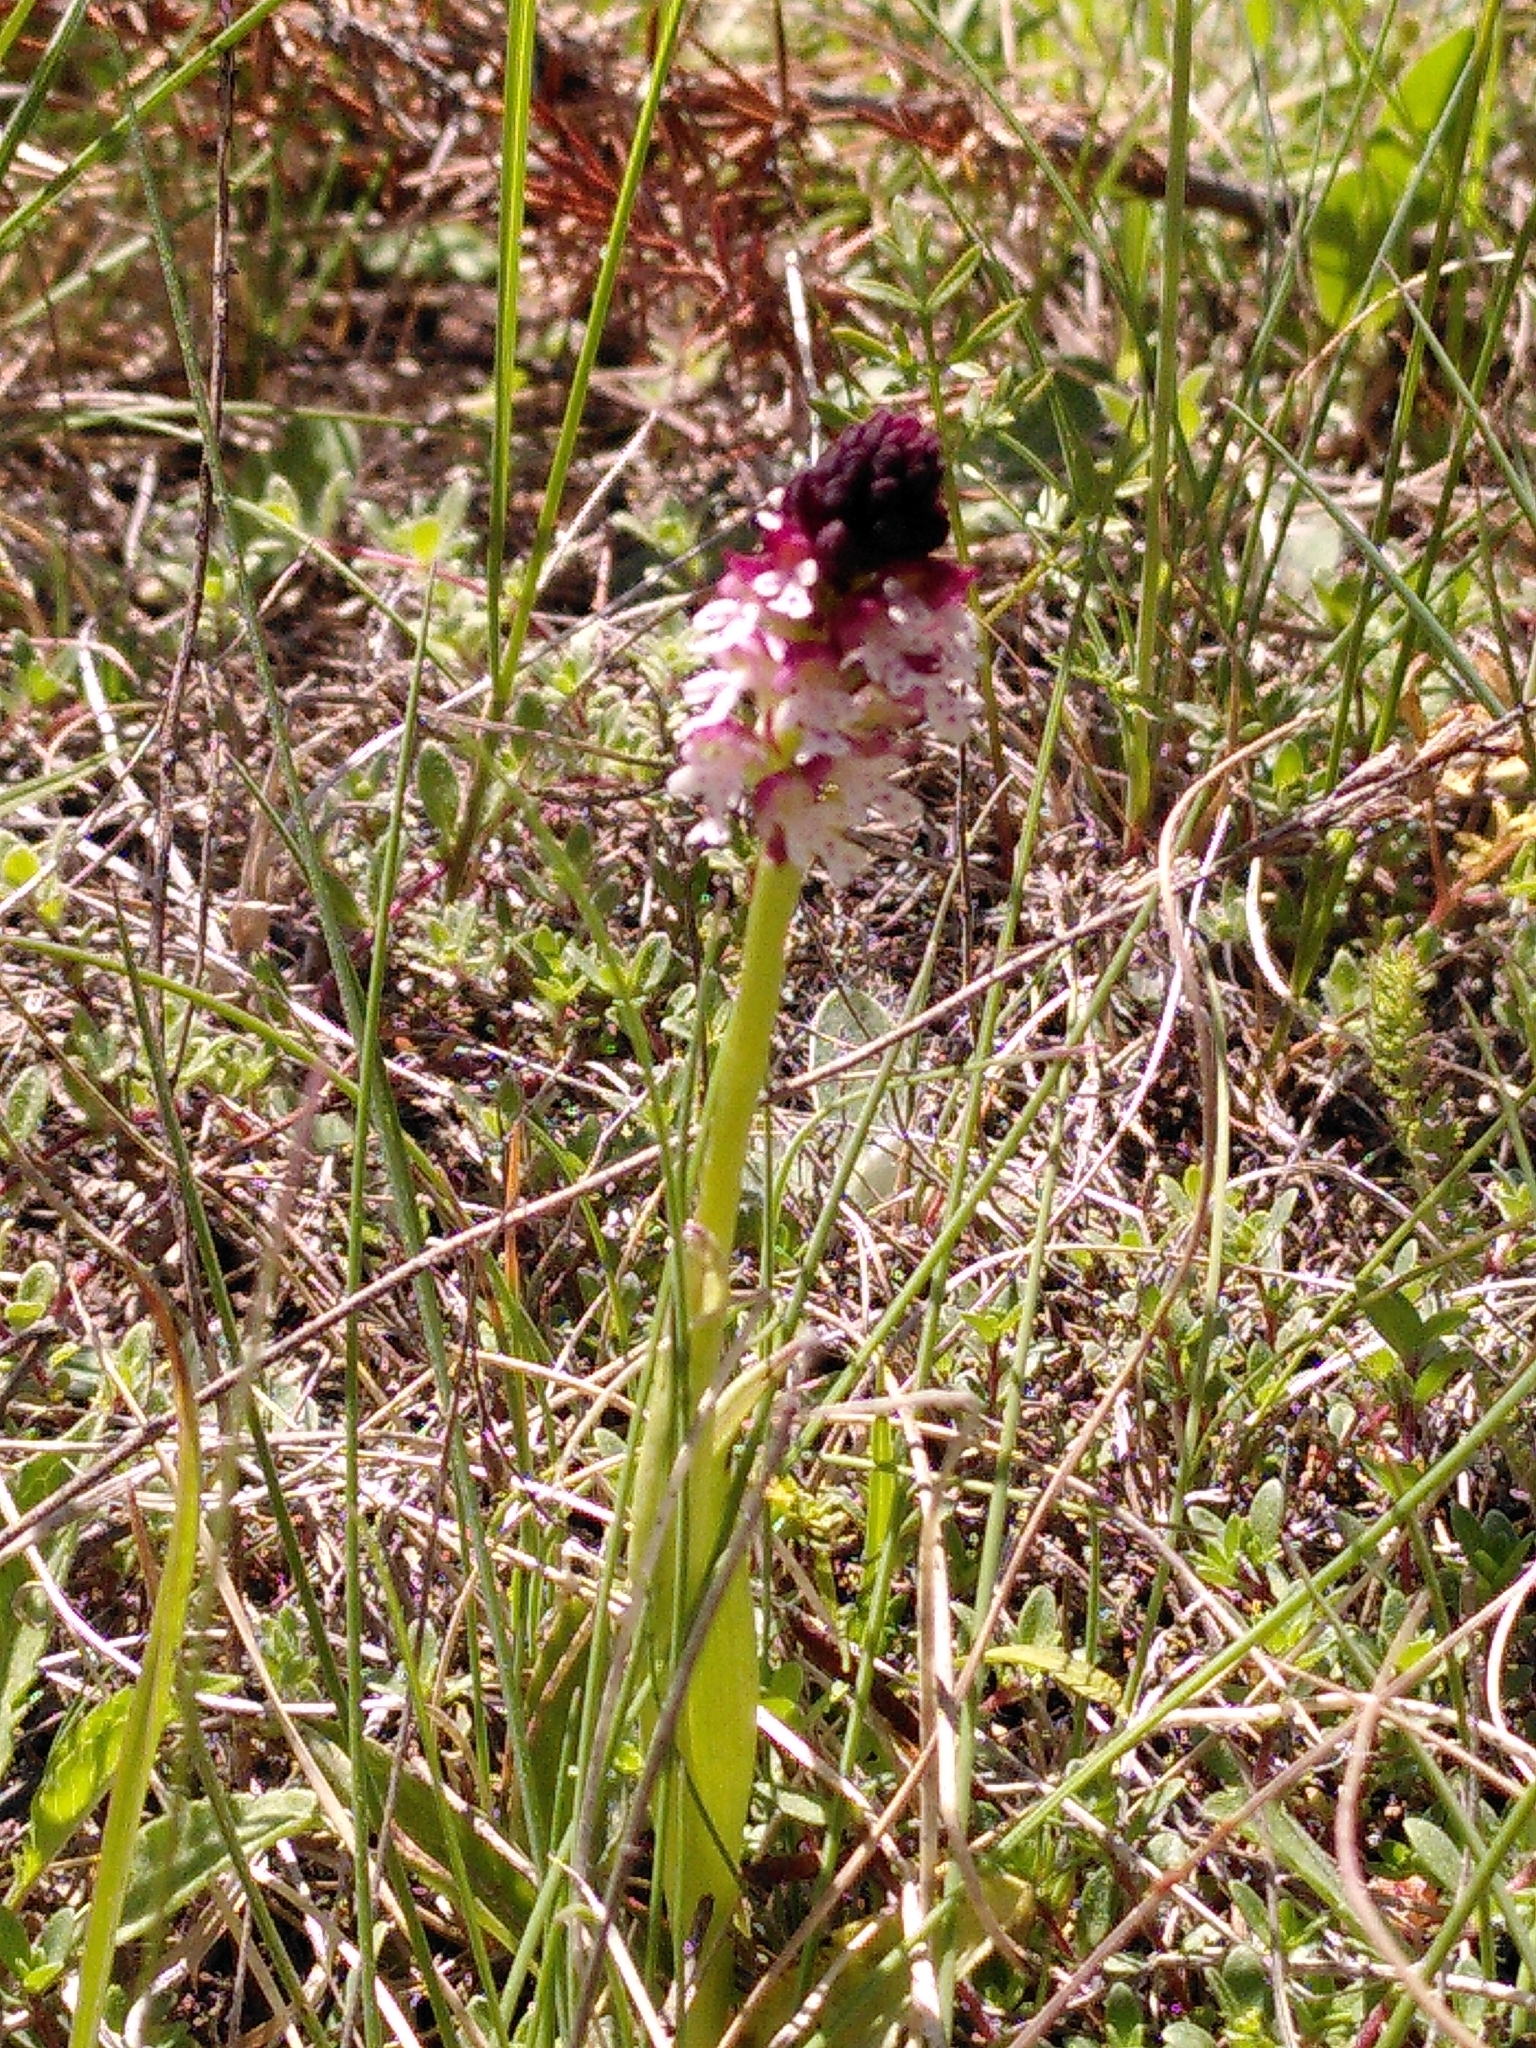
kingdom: Plantae
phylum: Tracheophyta
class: Liliopsida
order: Asparagales
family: Orchidaceae
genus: Neotinea
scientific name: Neotinea ustulata
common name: Burnt orchid
